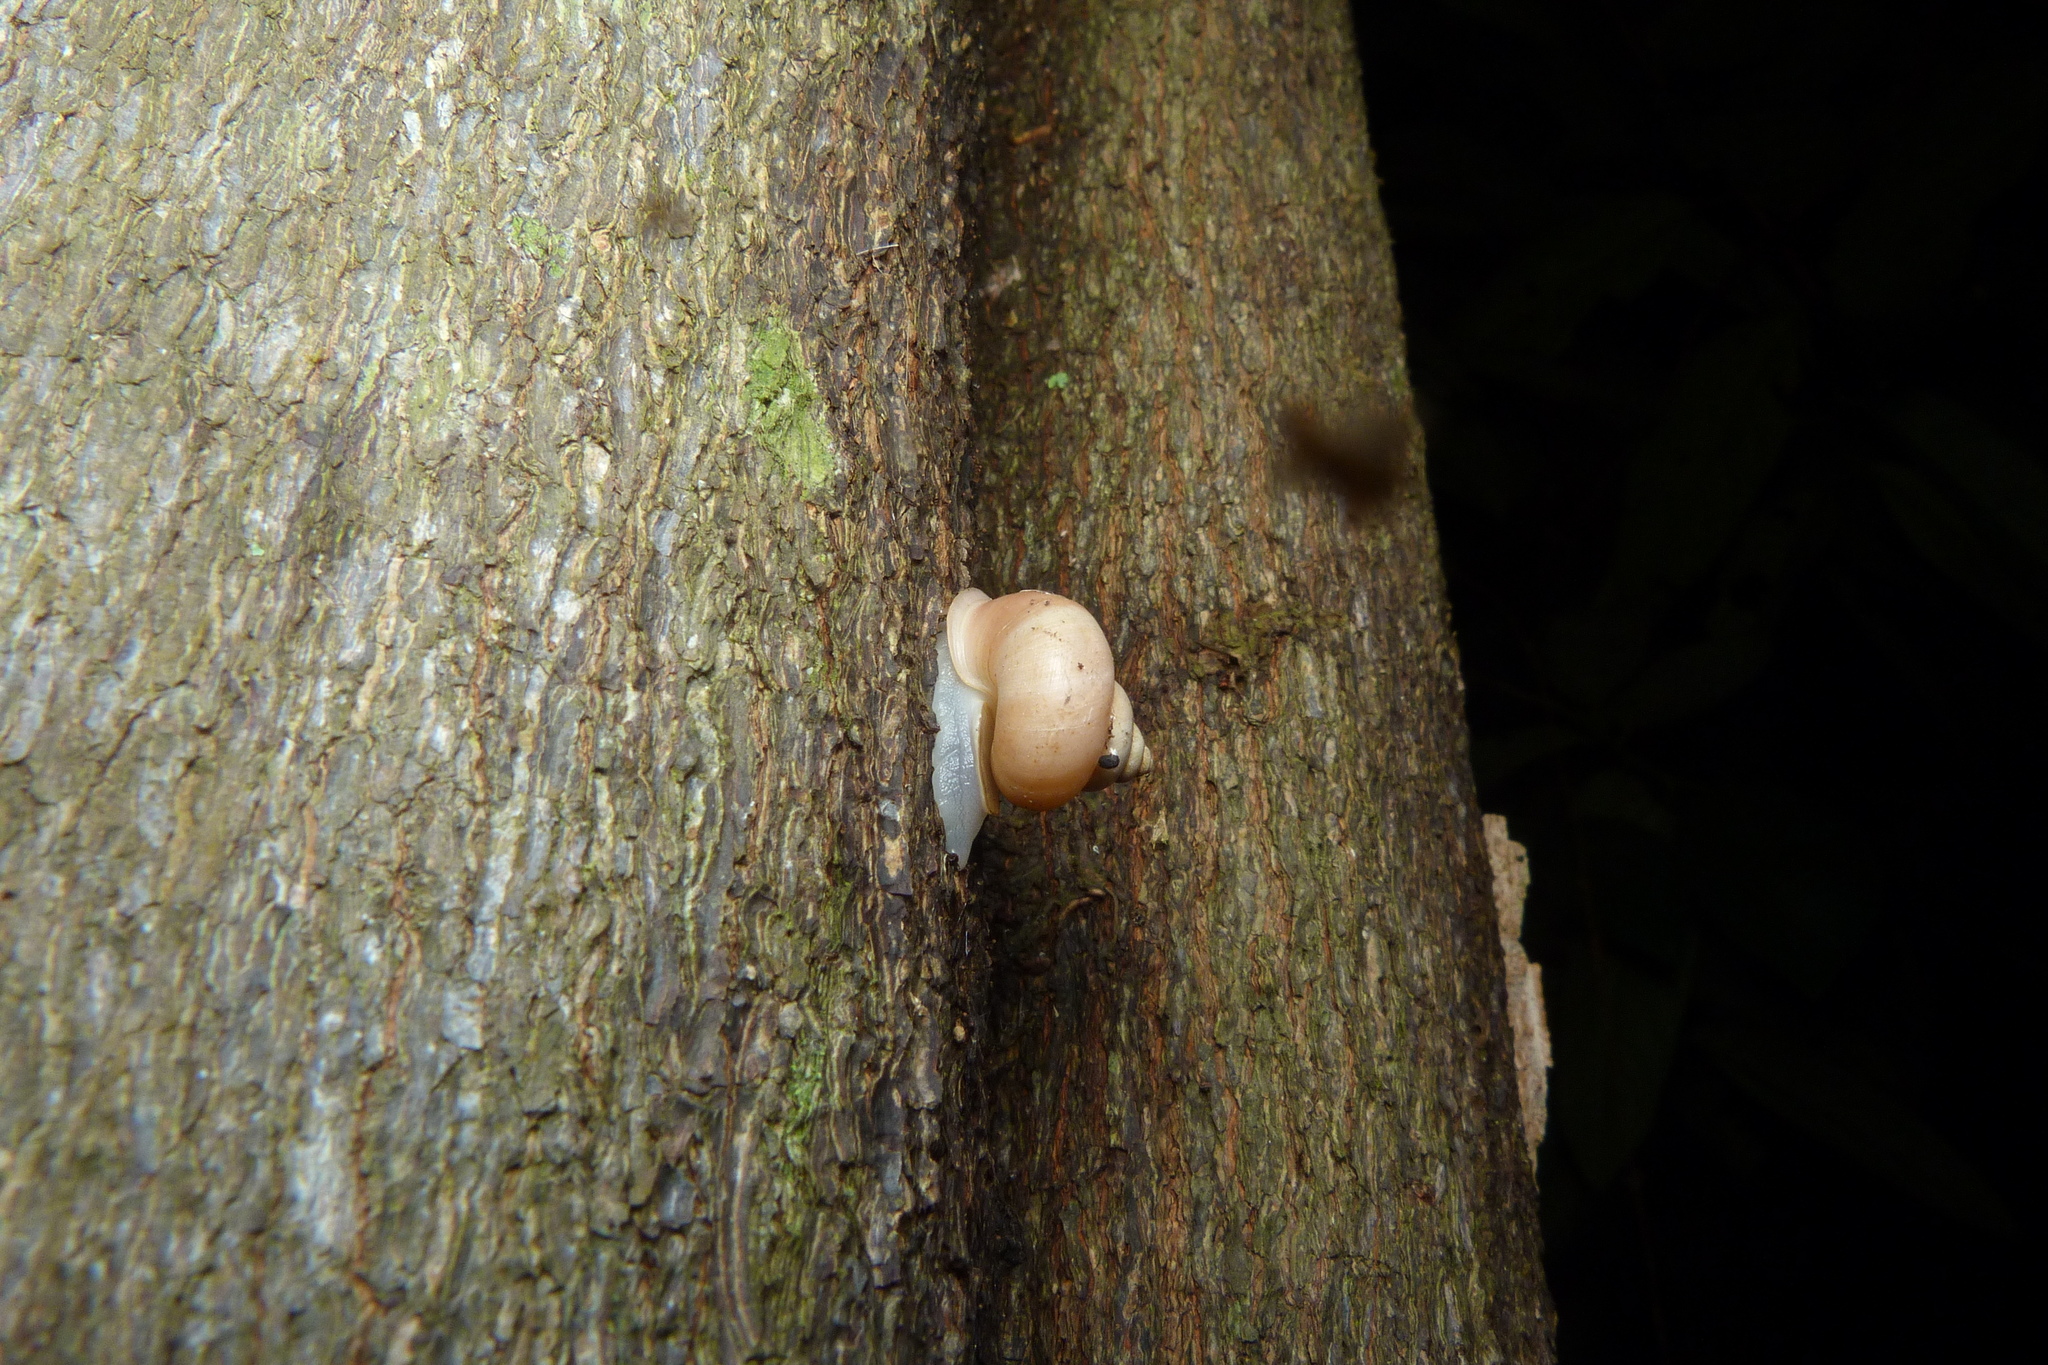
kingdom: Animalia
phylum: Mollusca
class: Gastropoda
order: Architaenioglossa
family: Cyclophoridae
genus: Leptopoma
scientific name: Leptopoma perlucidum
